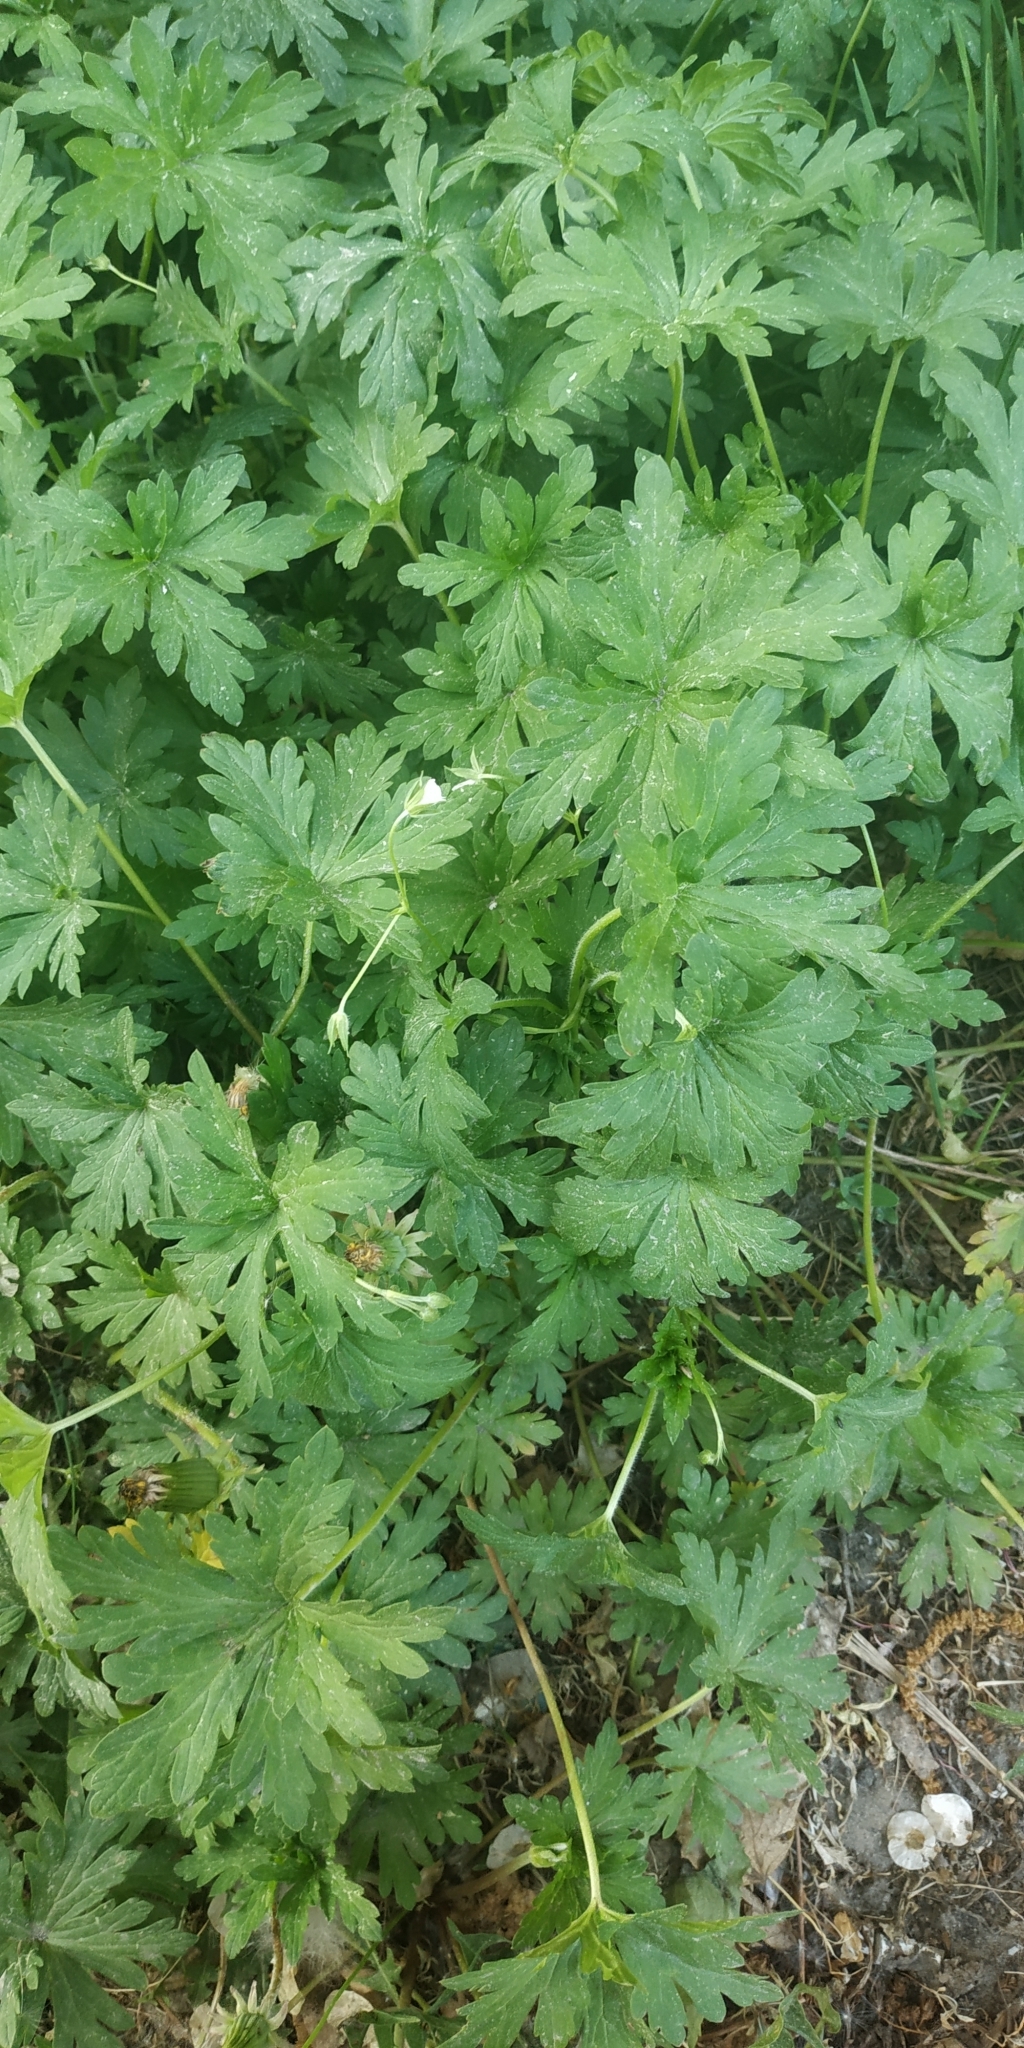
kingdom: Plantae
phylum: Tracheophyta
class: Magnoliopsida
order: Geraniales
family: Geraniaceae
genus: Geranium
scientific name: Geranium sibiricum
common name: Siberian crane's-bill
